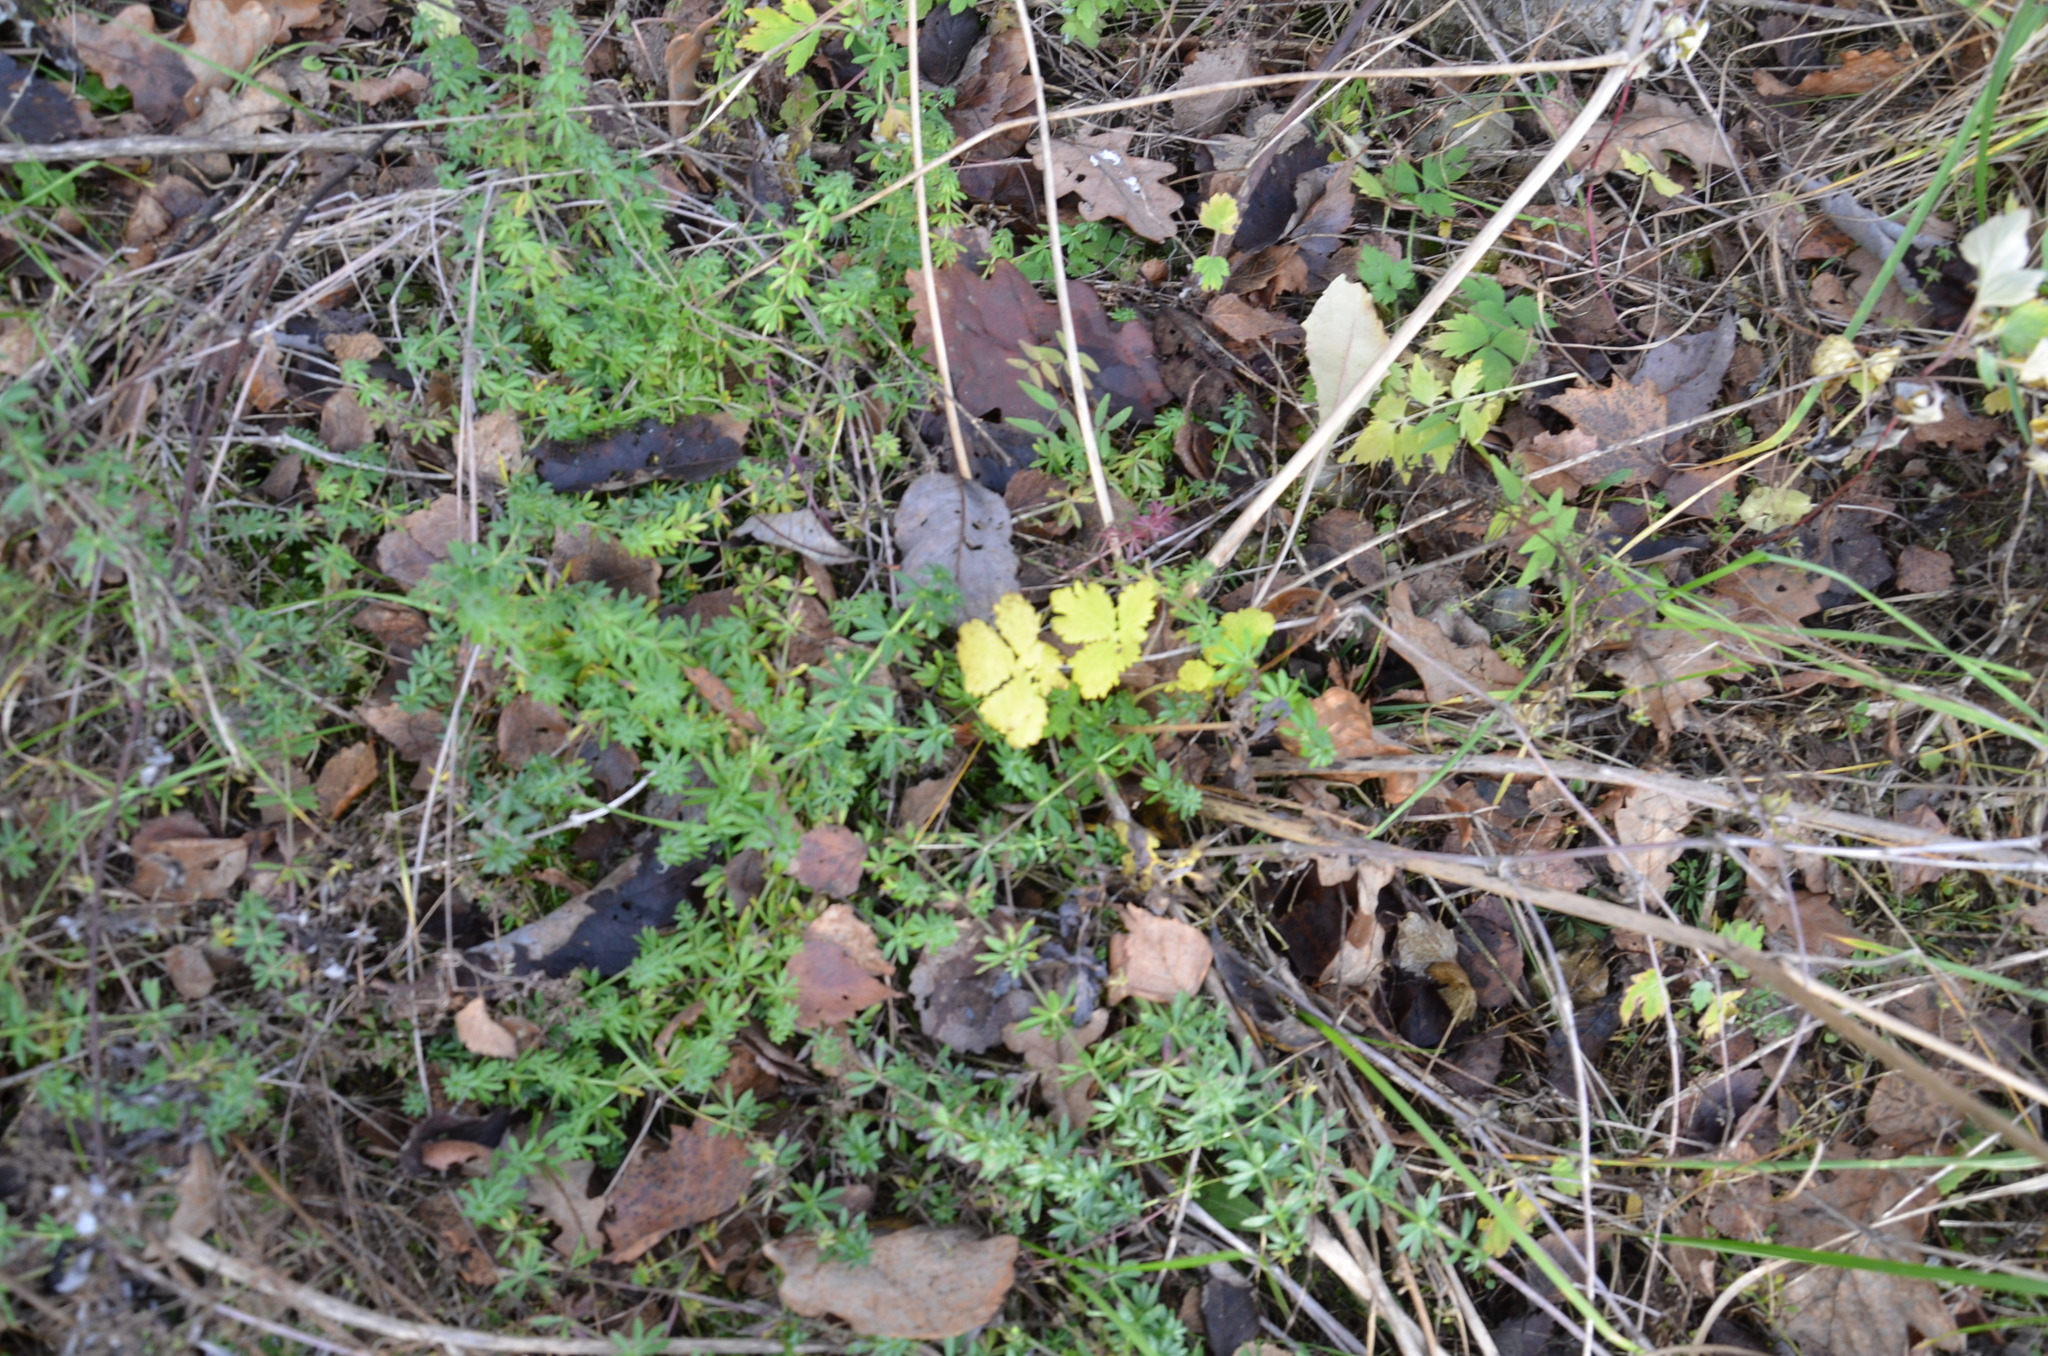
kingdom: Plantae
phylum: Tracheophyta
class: Magnoliopsida
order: Gentianales
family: Rubiaceae
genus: Galium
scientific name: Galium mollugo
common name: Hedge bedstraw
